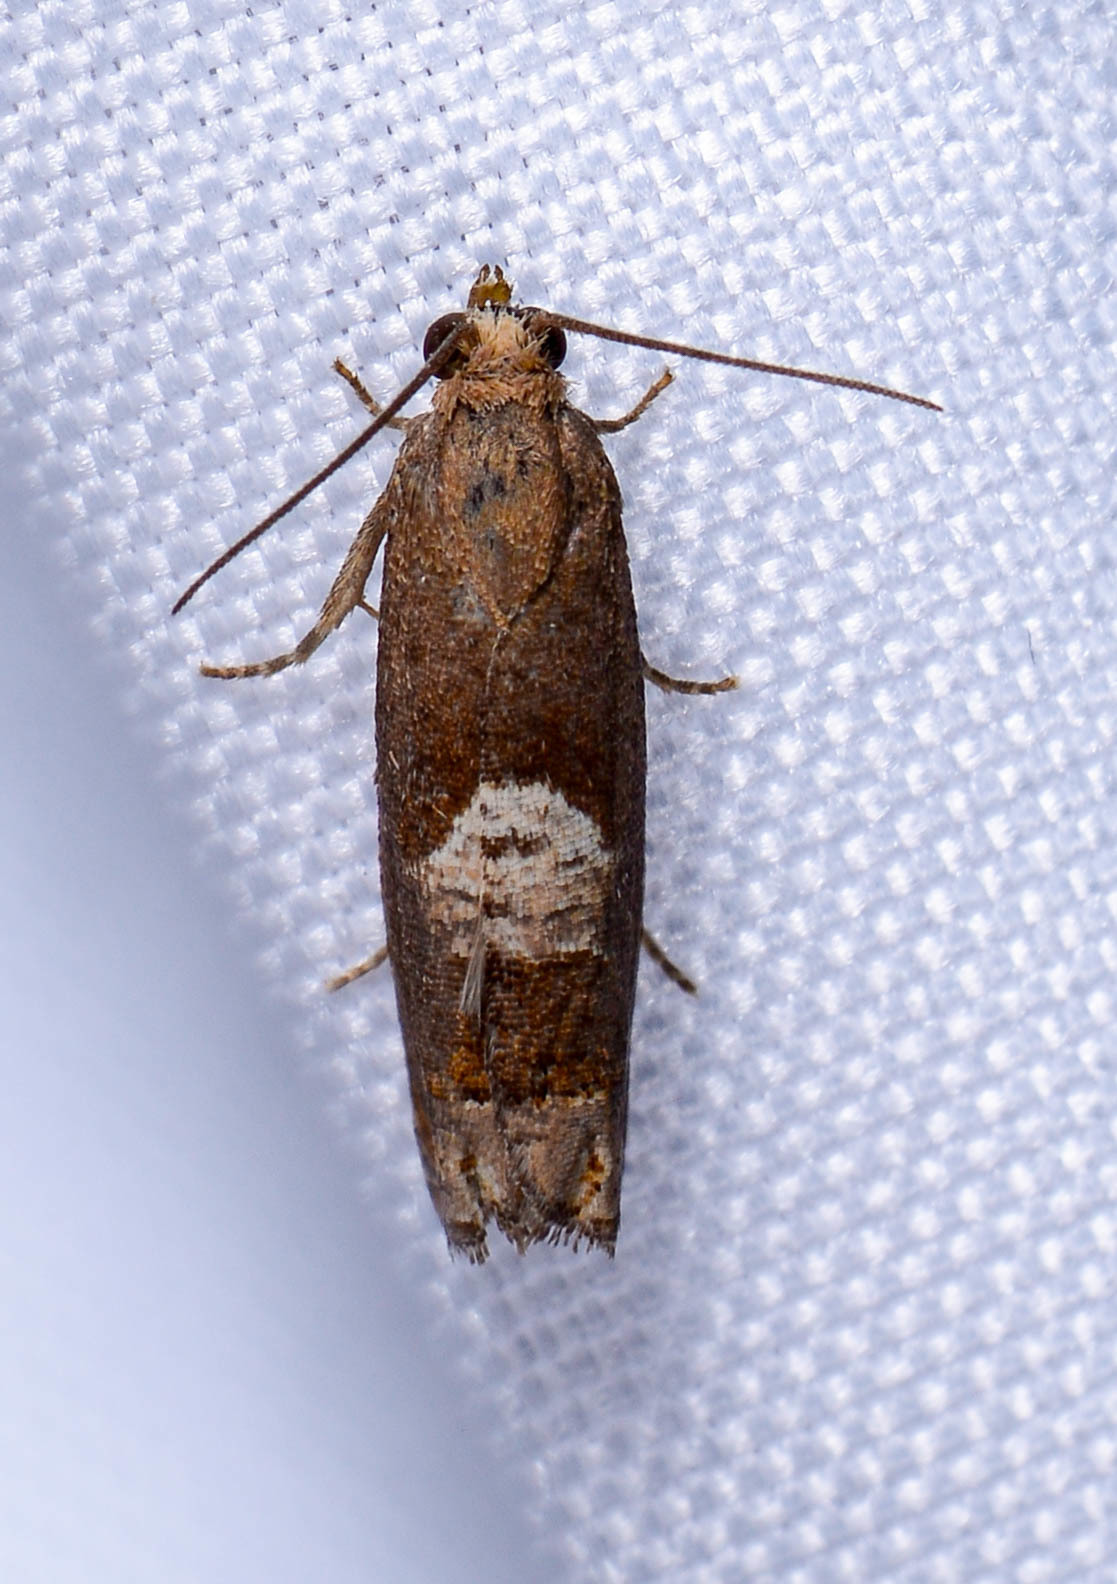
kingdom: Animalia
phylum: Arthropoda
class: Insecta
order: Lepidoptera
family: Tortricidae
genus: Eucosma
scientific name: Eucosma parmatana
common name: Aster eucosma moth
